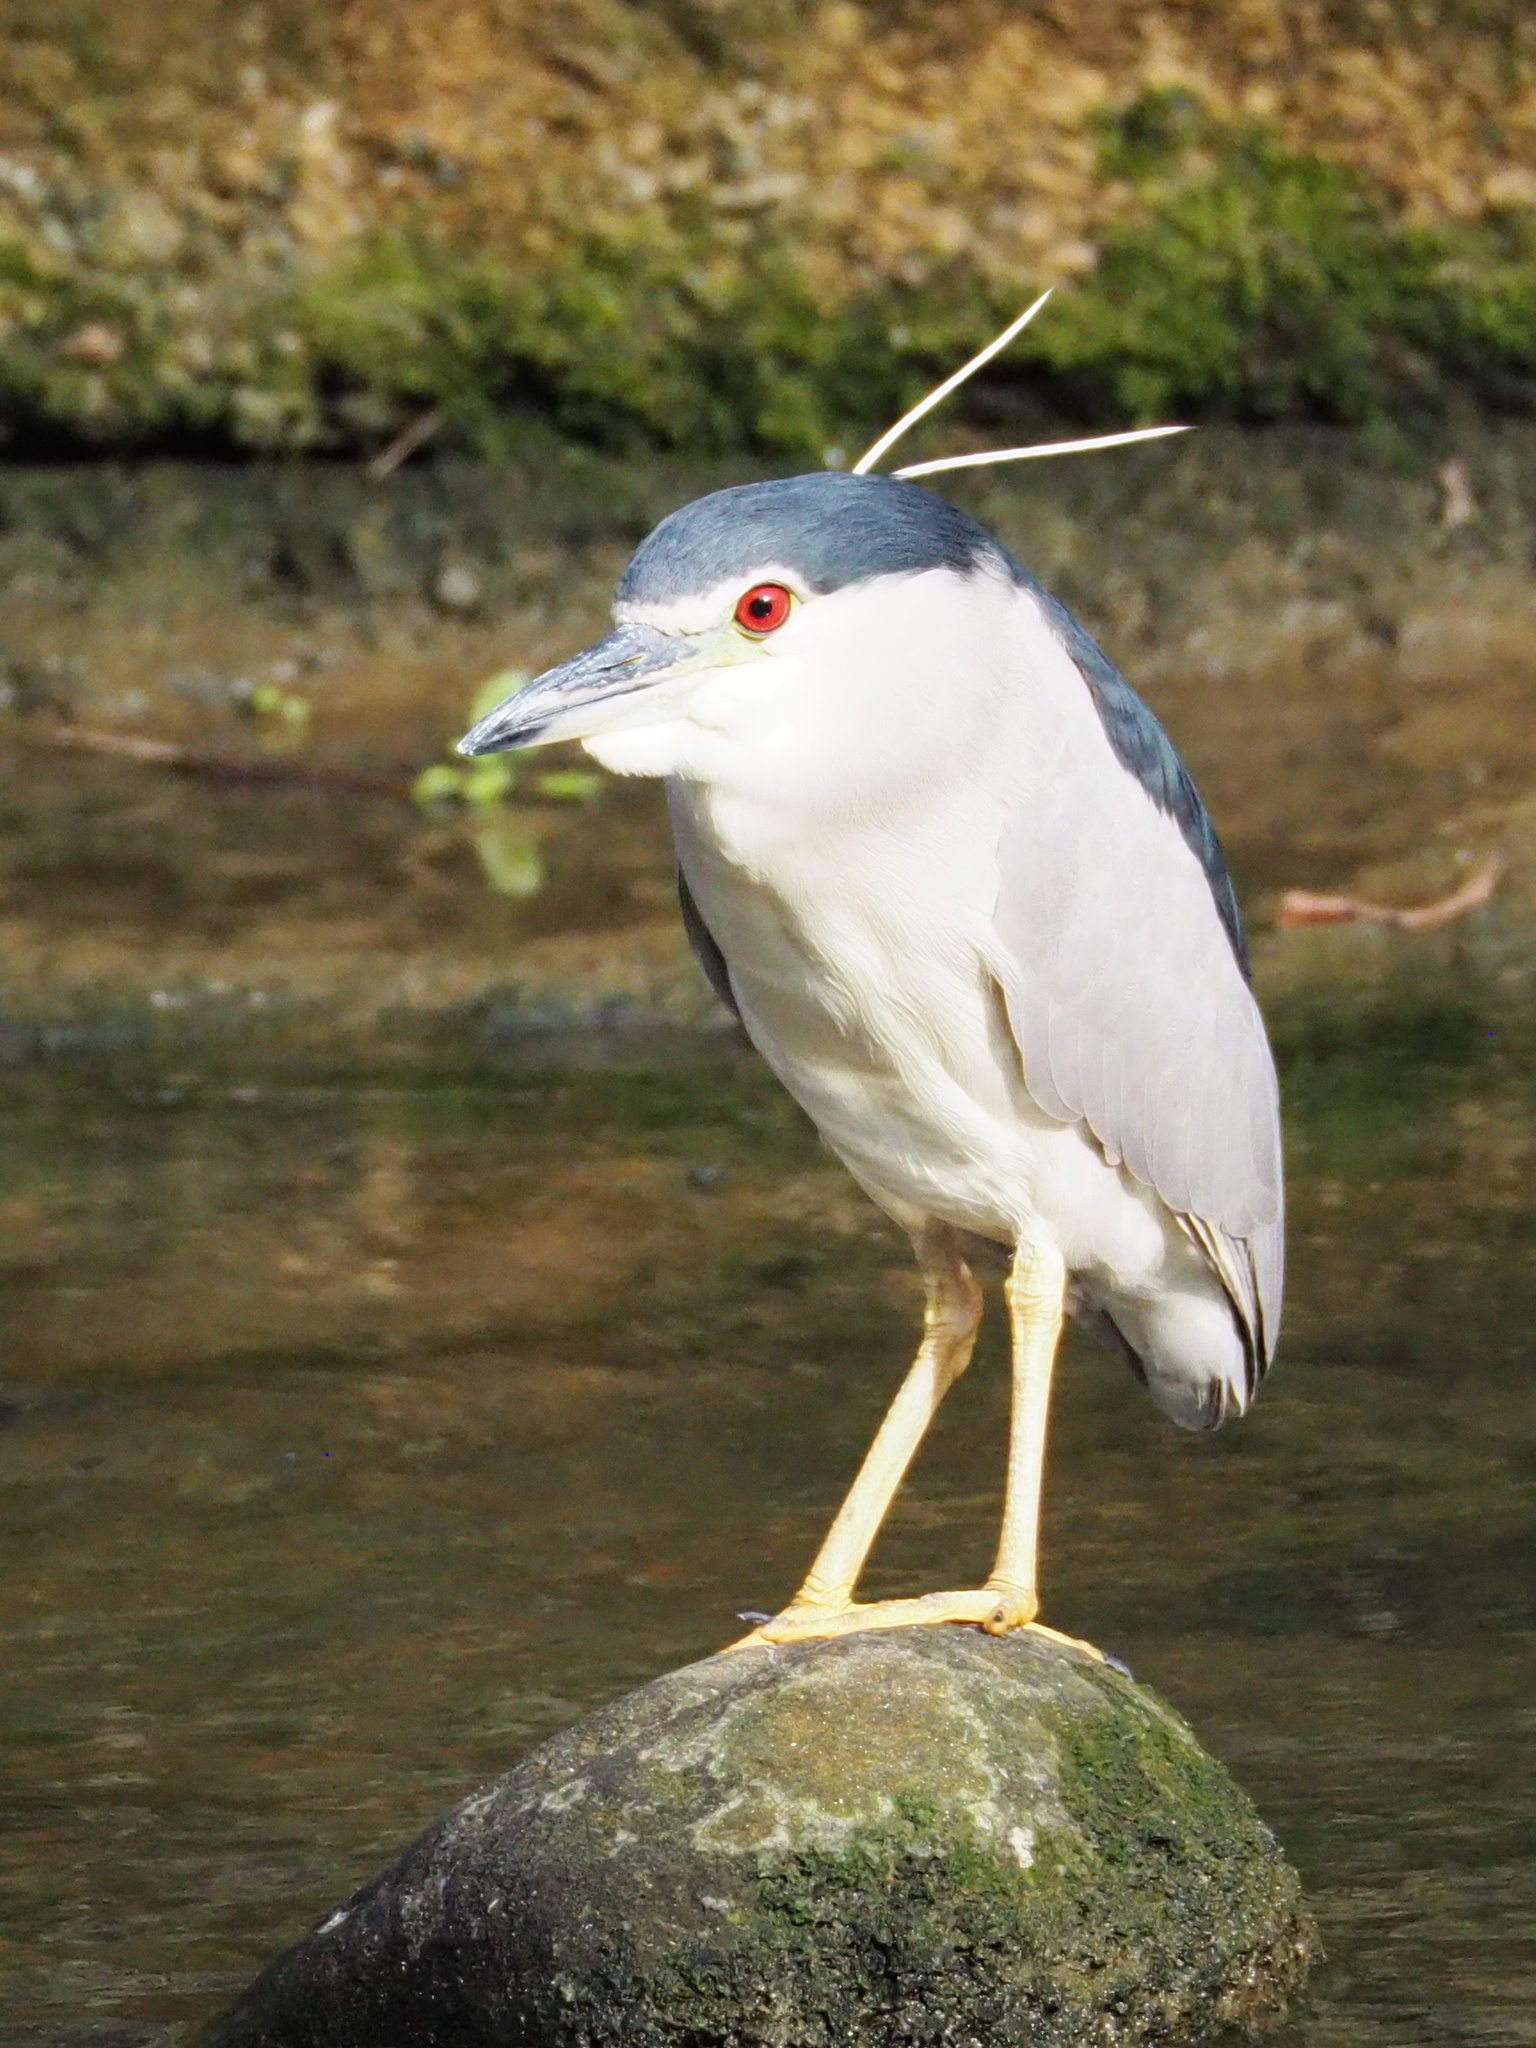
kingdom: Animalia
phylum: Chordata
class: Aves
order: Pelecaniformes
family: Ardeidae
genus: Nycticorax
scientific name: Nycticorax nycticorax
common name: Black-crowned night heron
